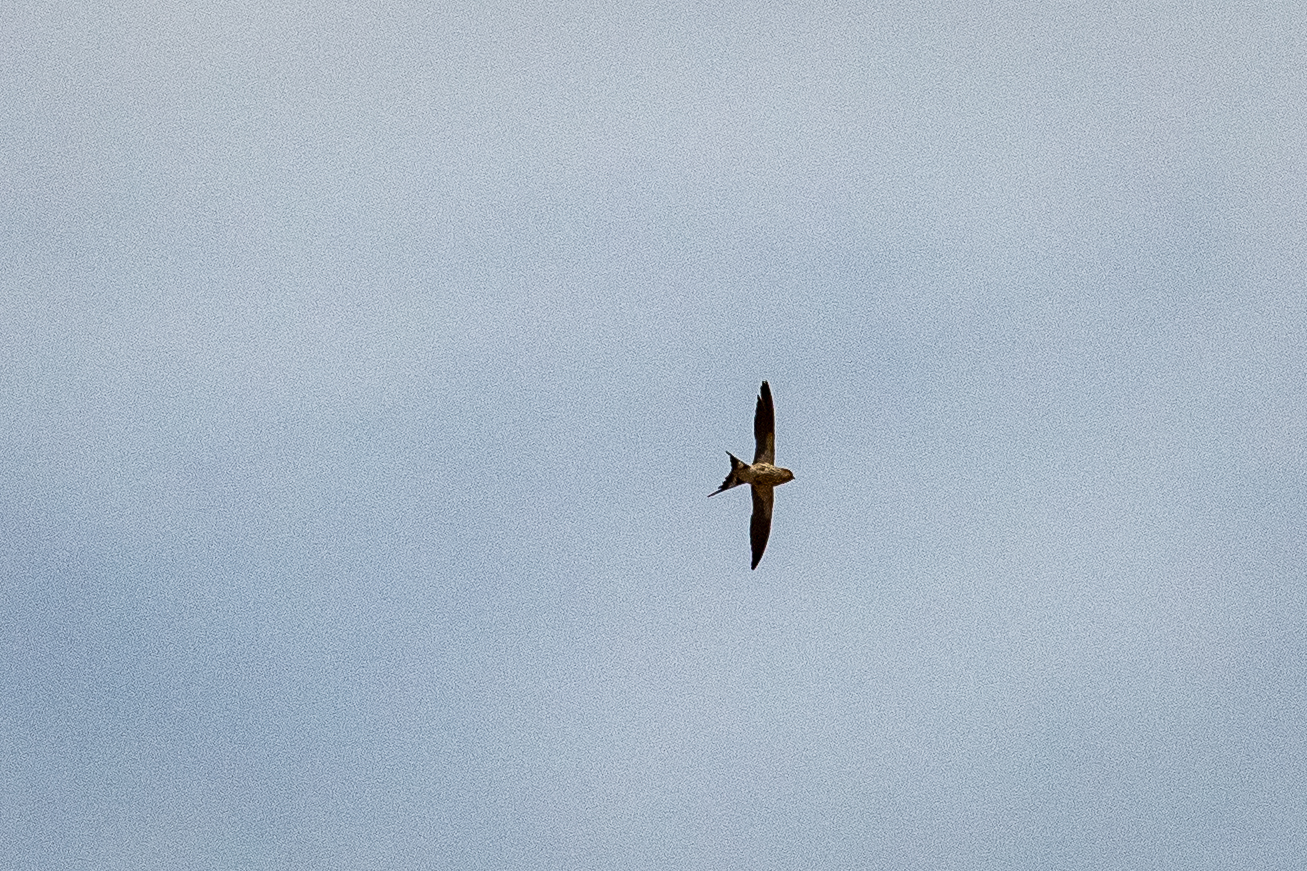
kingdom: Animalia
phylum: Chordata
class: Aves
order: Passeriformes
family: Hirundinidae
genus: Cecropis
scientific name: Cecropis cucullata
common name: Greater striped-swallow
